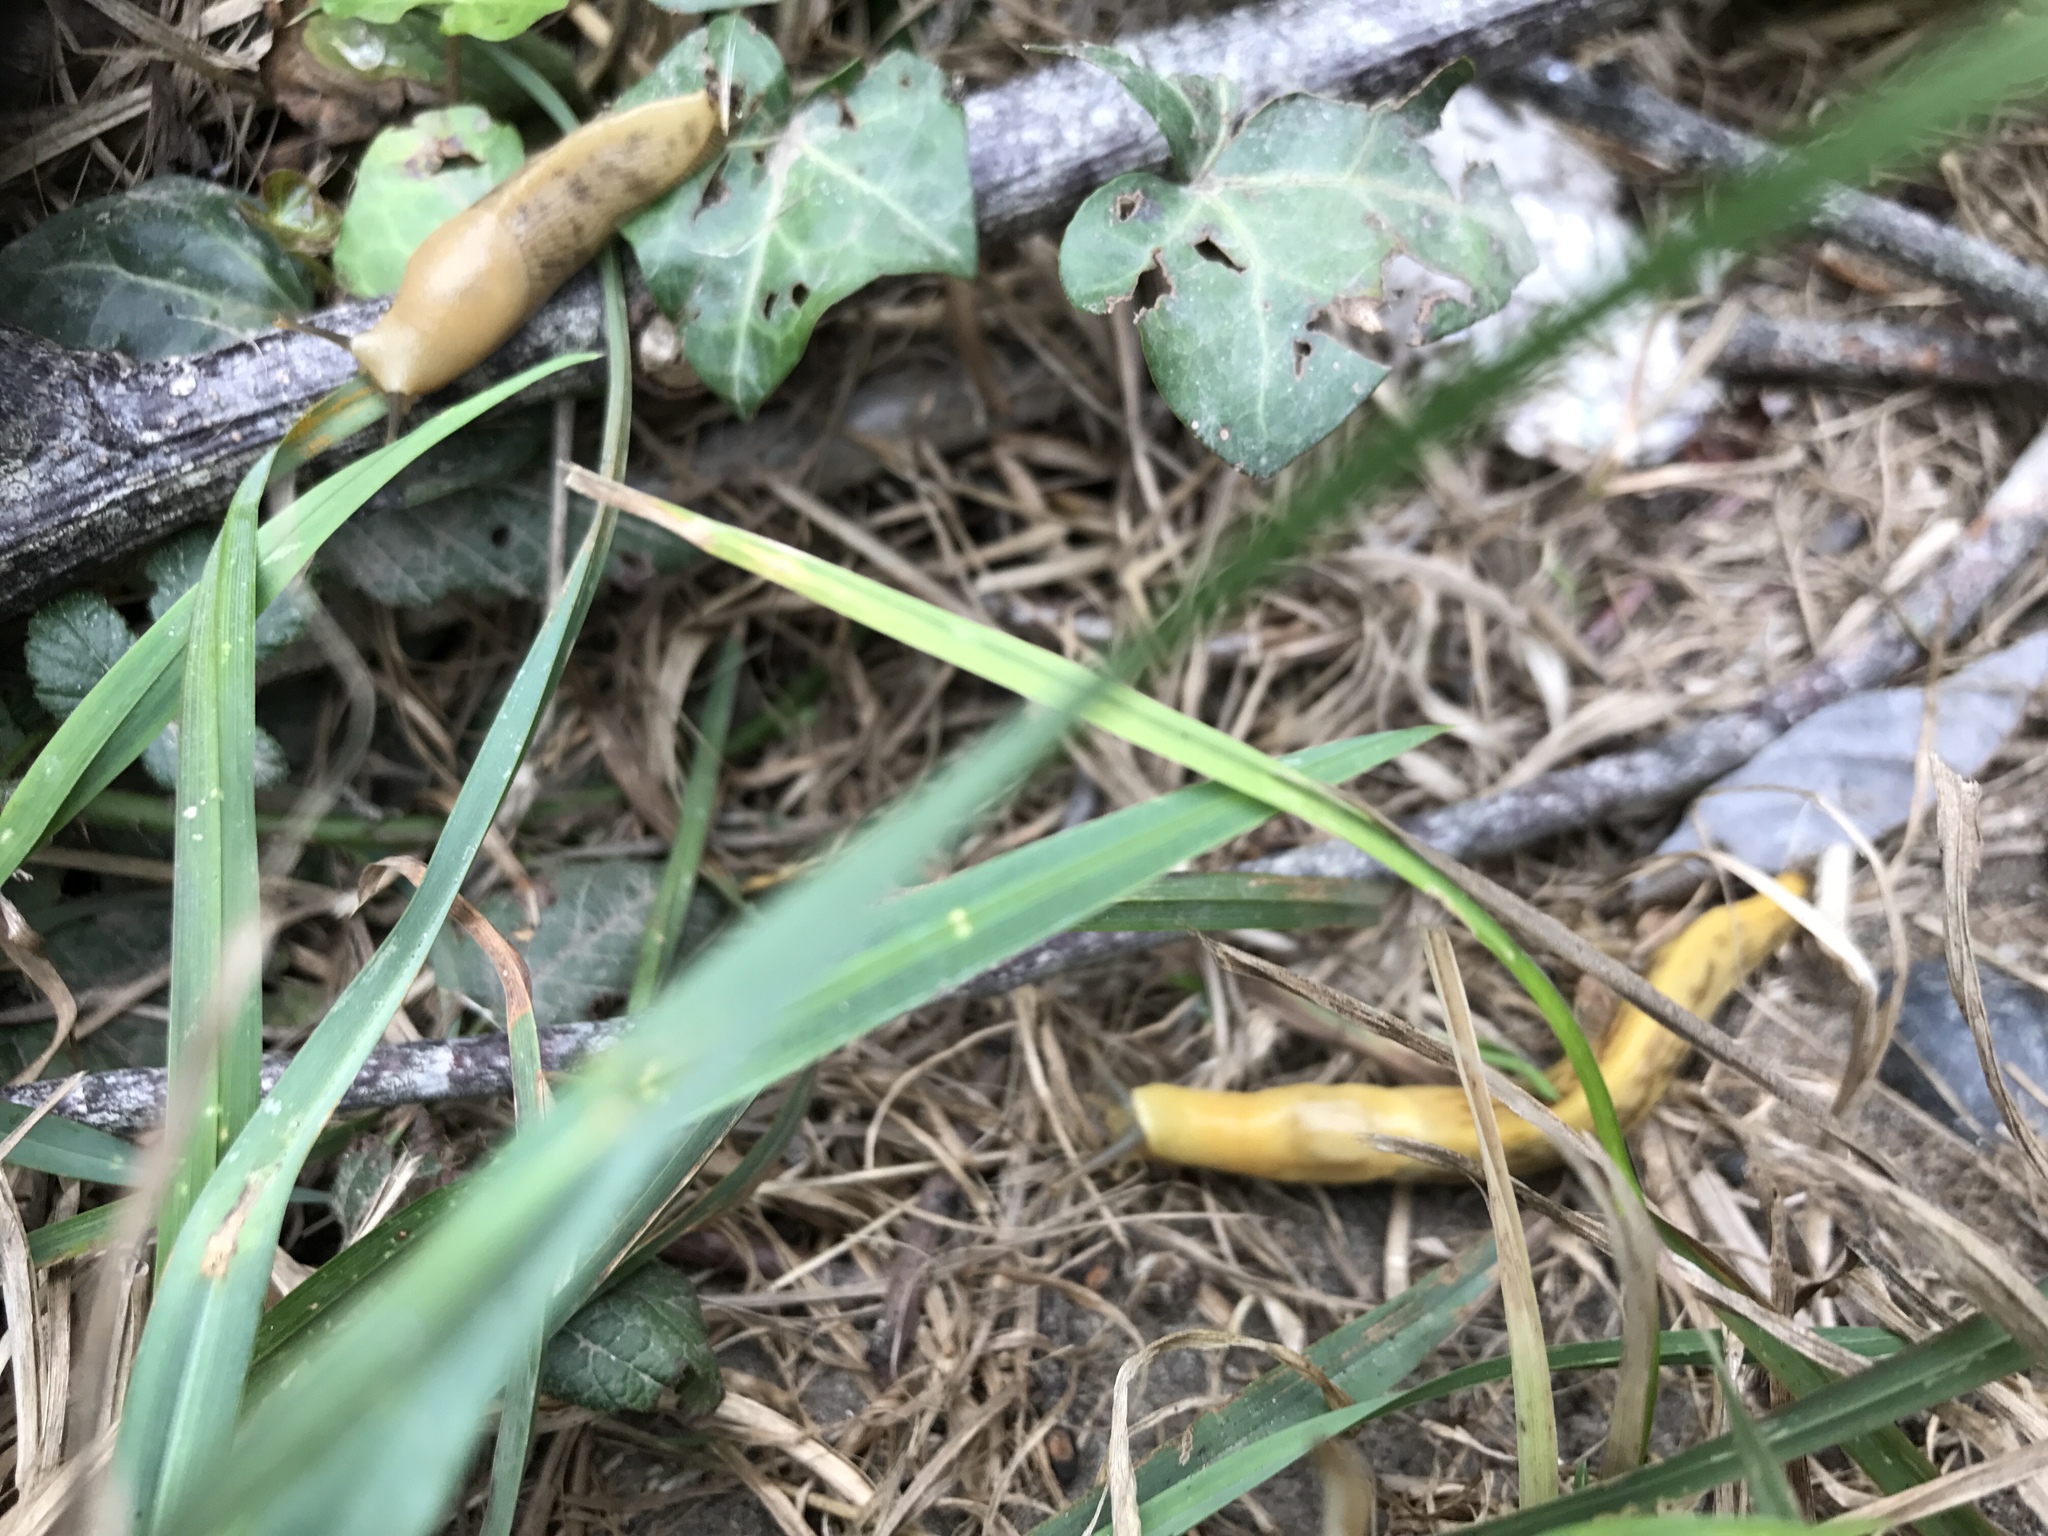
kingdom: Animalia
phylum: Mollusca
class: Gastropoda
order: Stylommatophora
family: Ariolimacidae
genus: Ariolimax
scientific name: Ariolimax columbianus
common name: Pacific banana slug
